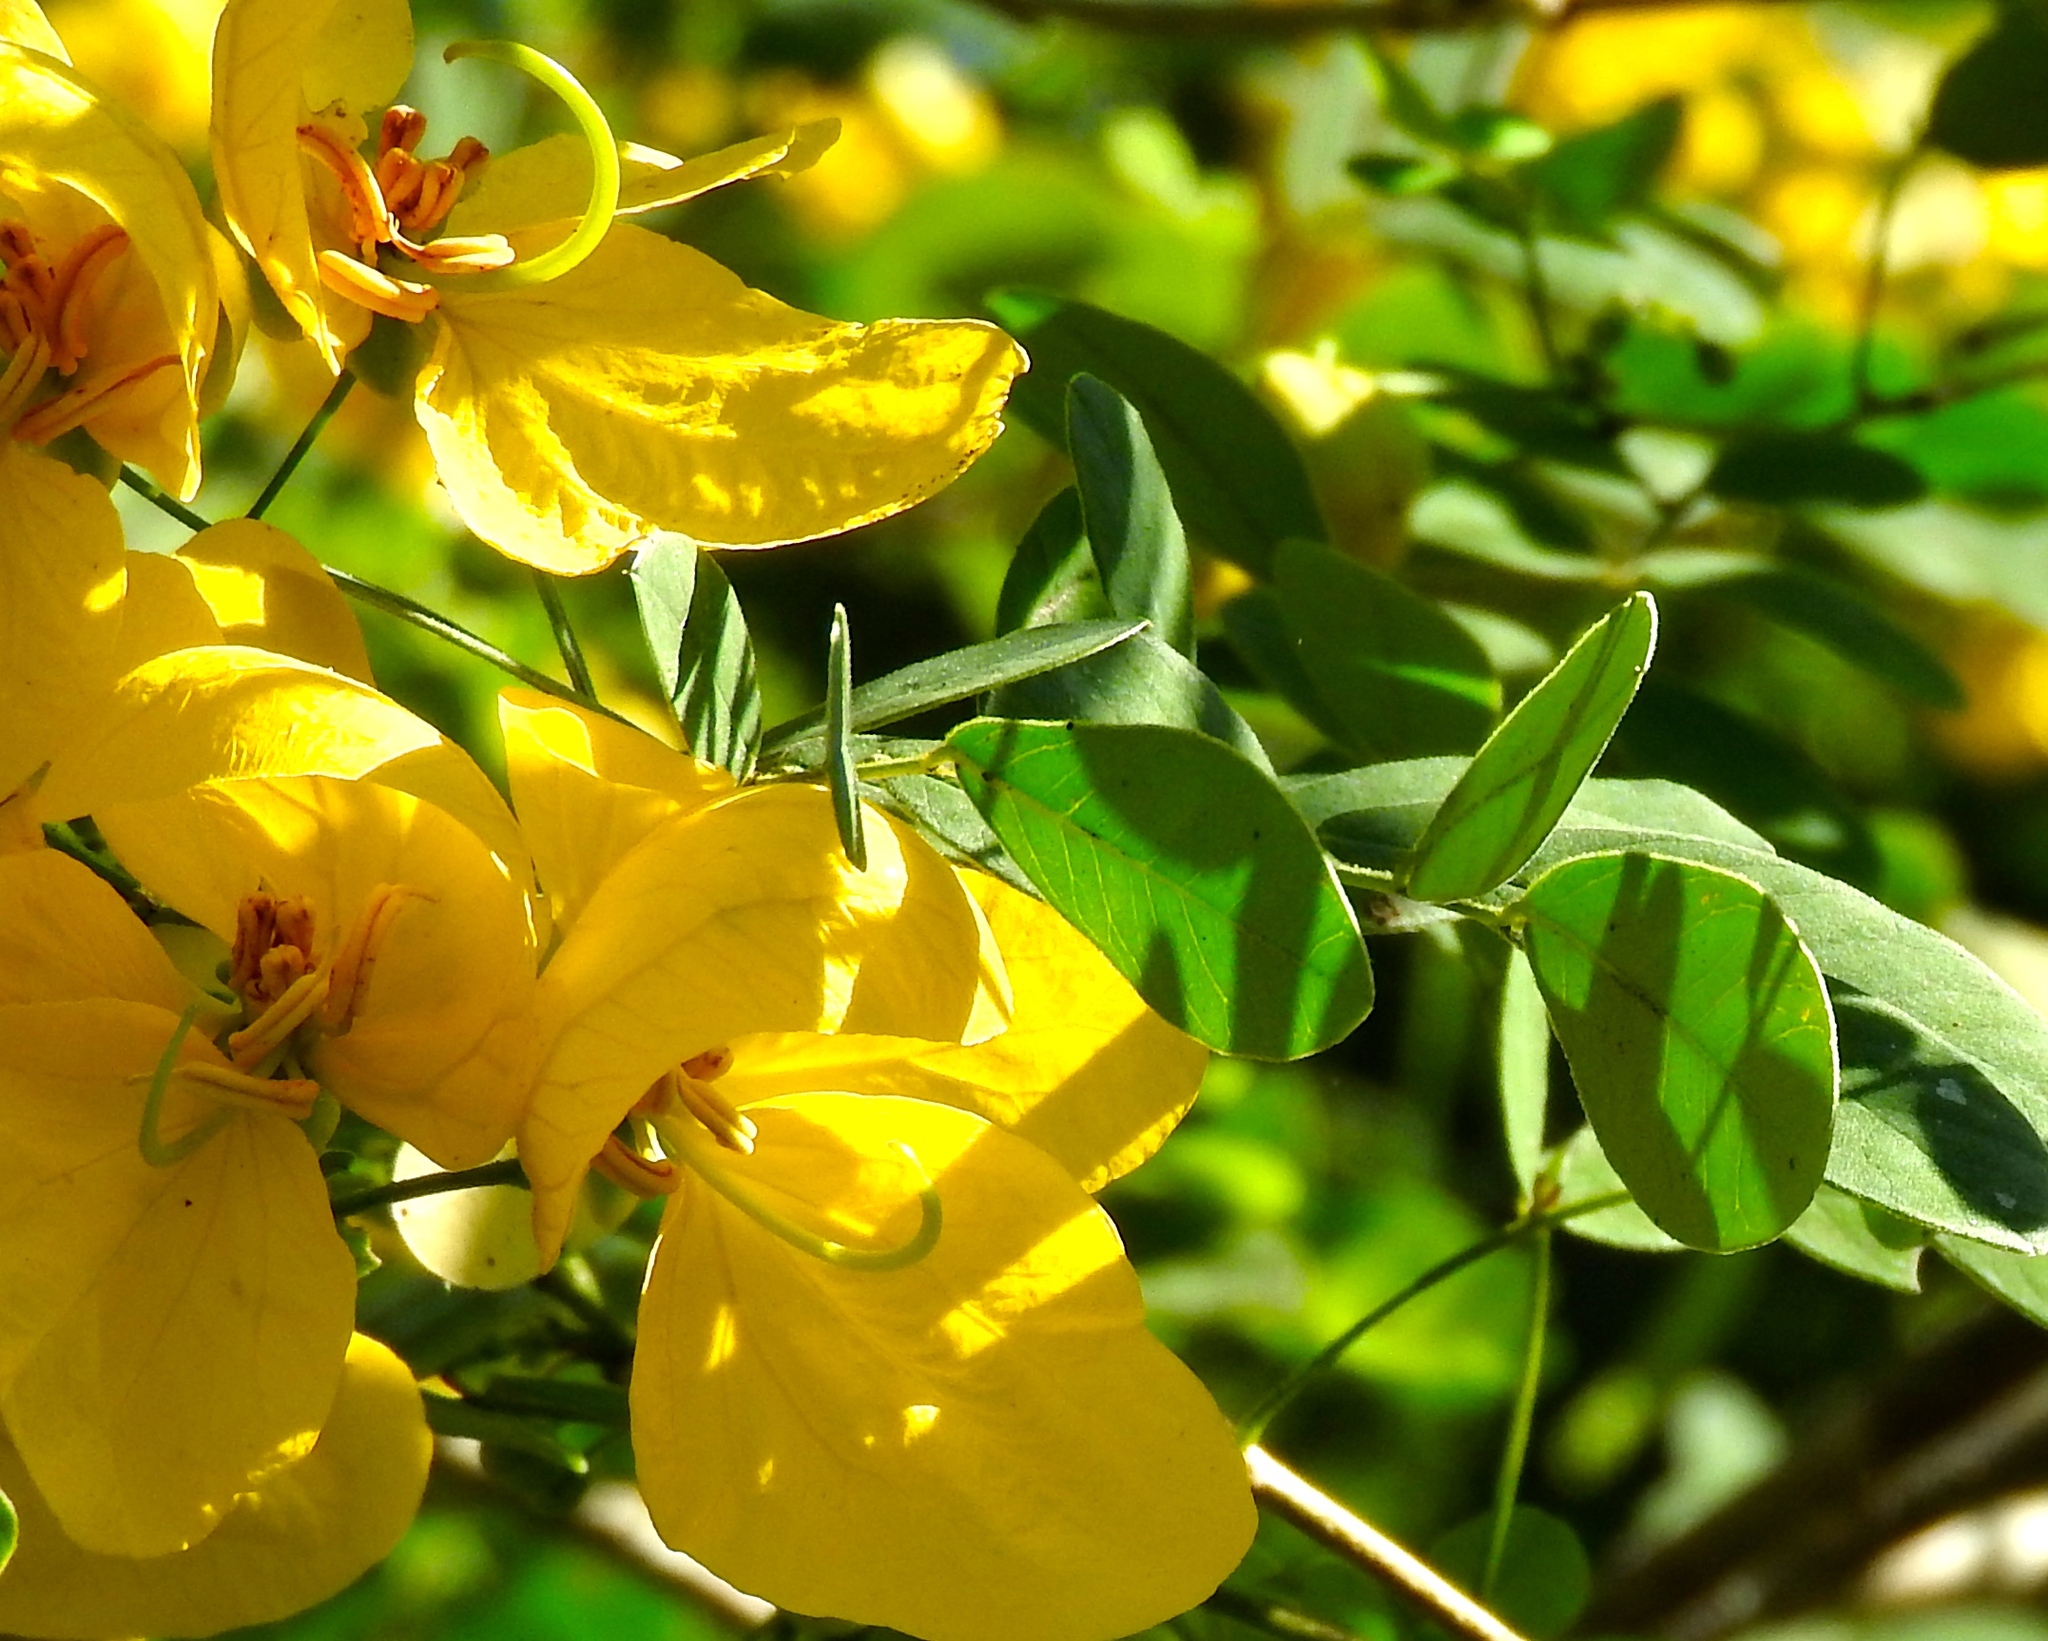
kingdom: Plantae
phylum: Tracheophyta
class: Magnoliopsida
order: Fabales
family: Fabaceae
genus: Senna
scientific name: Senna pallida
